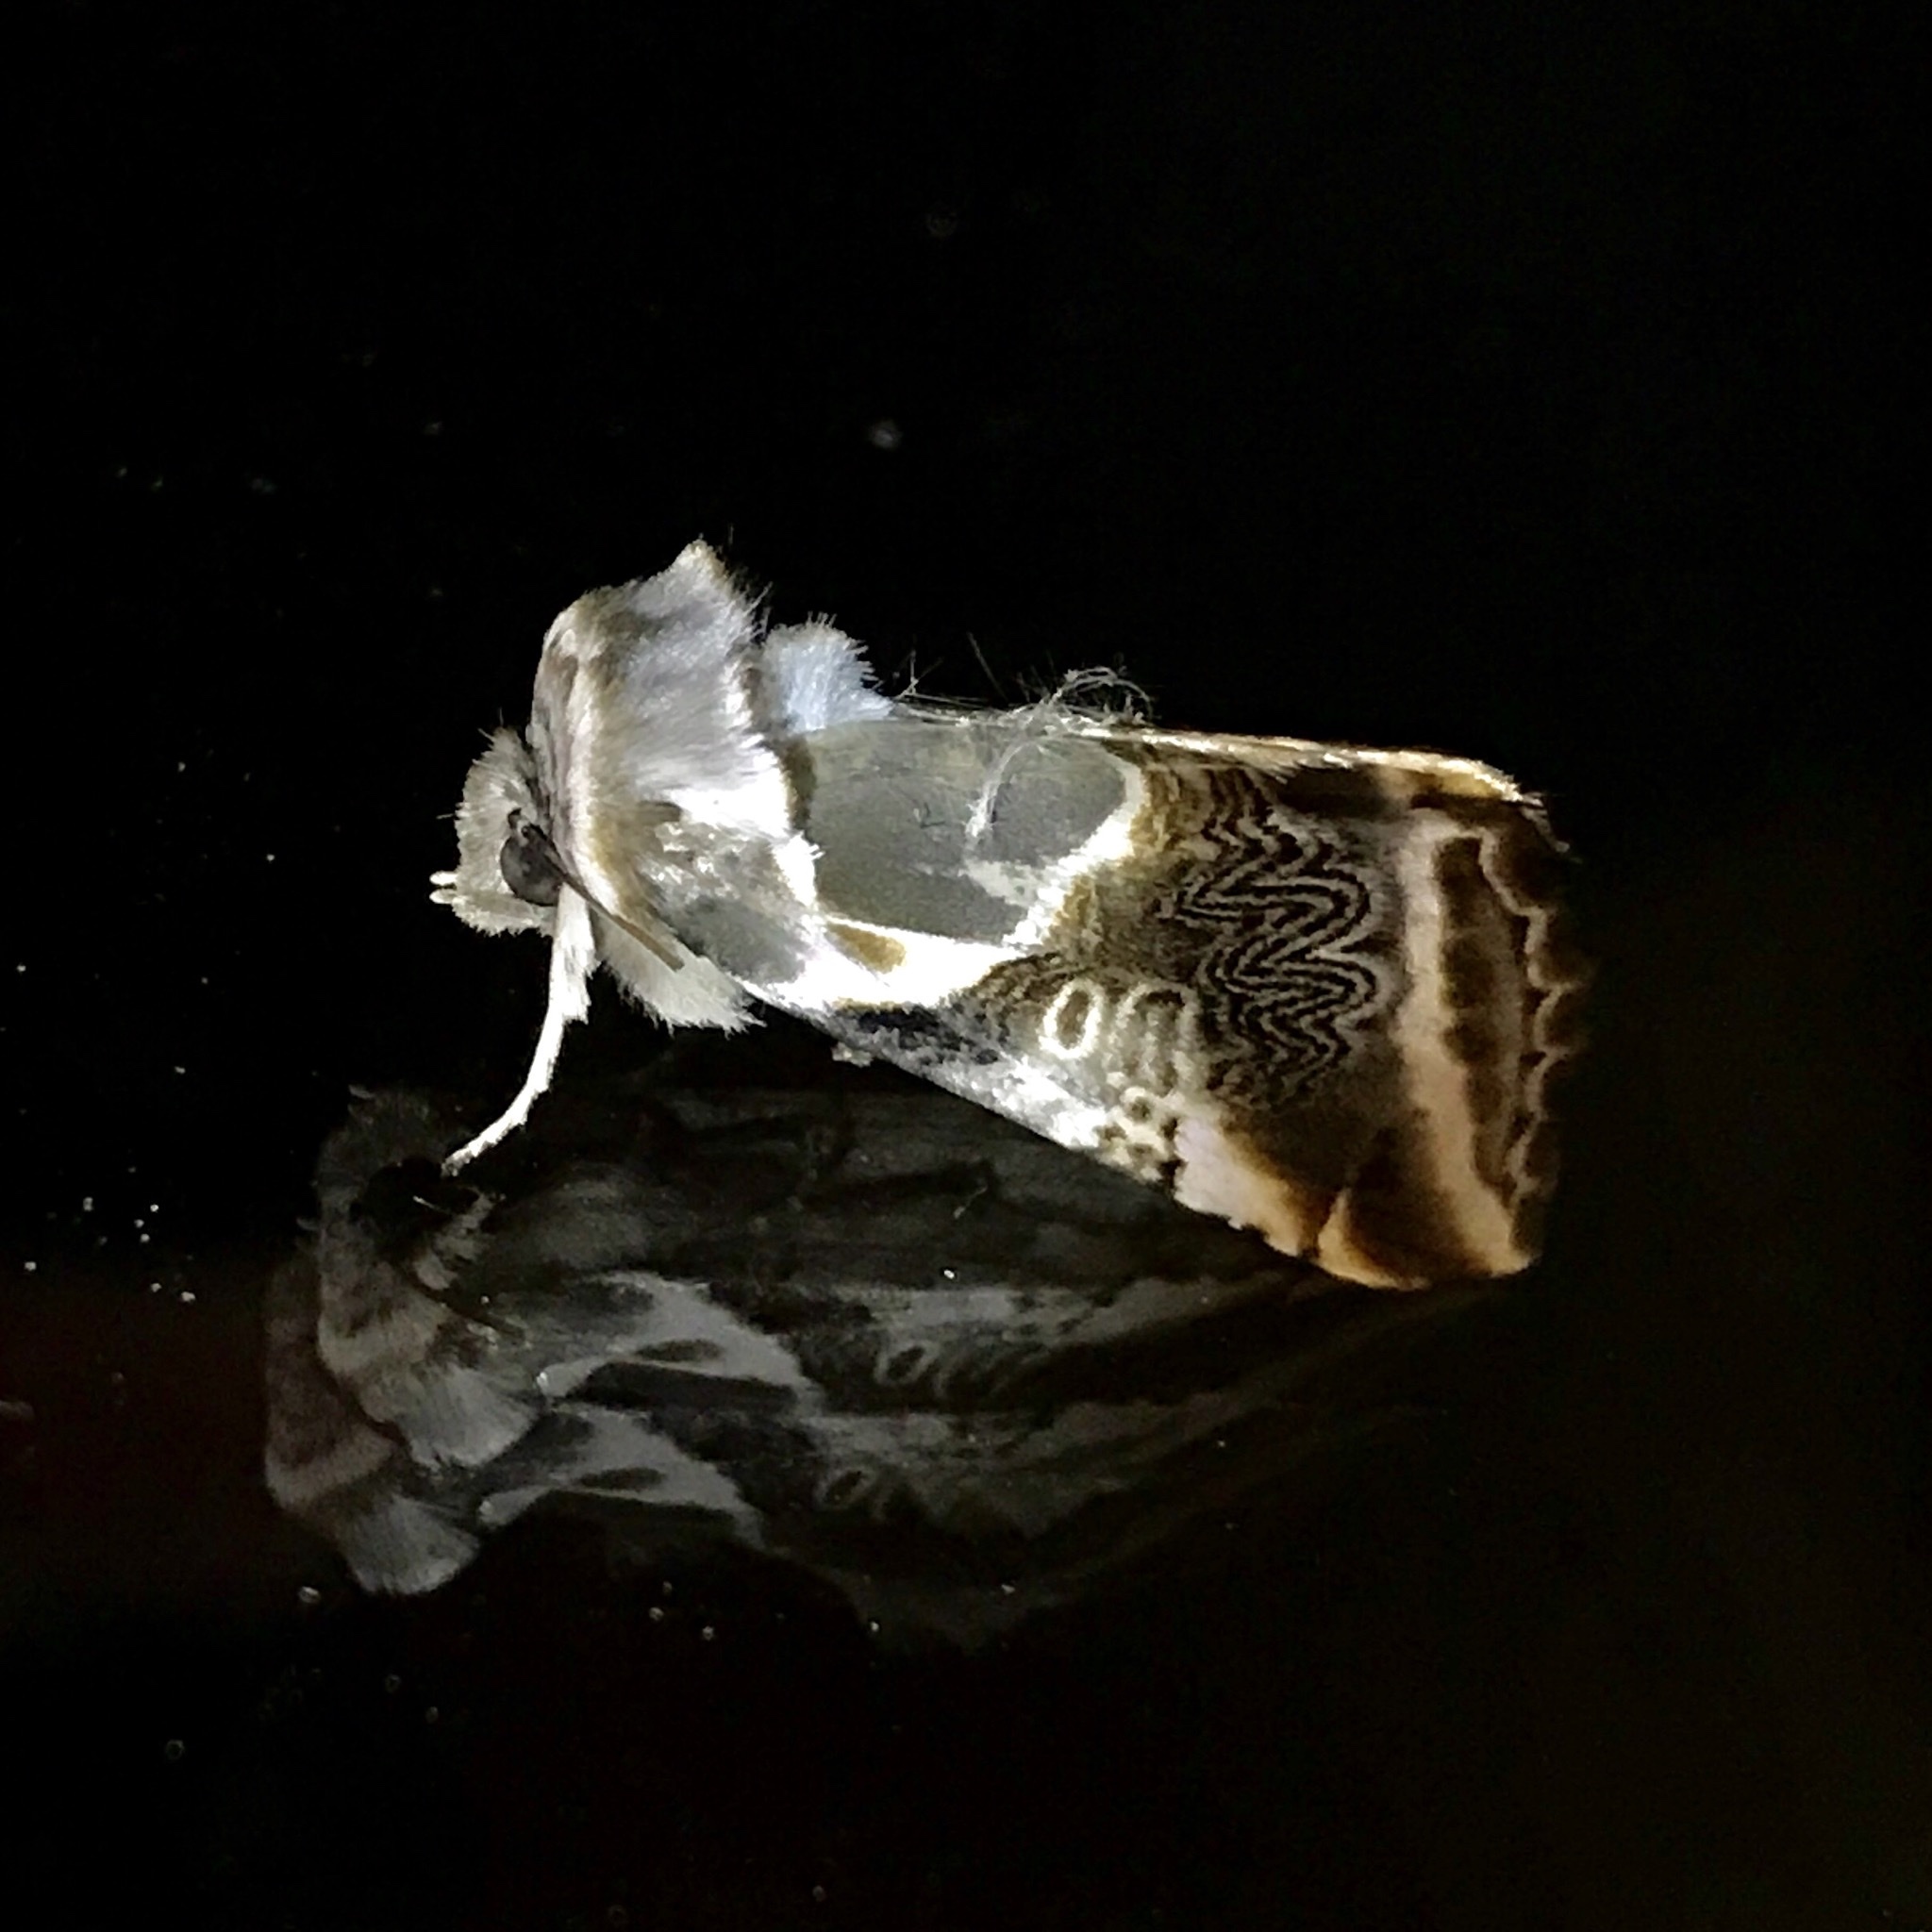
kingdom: Animalia
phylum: Arthropoda
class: Insecta
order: Lepidoptera
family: Drepanidae
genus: Habrosyne
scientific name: Habrosyne scripta
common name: Lettered habrosyne moth
